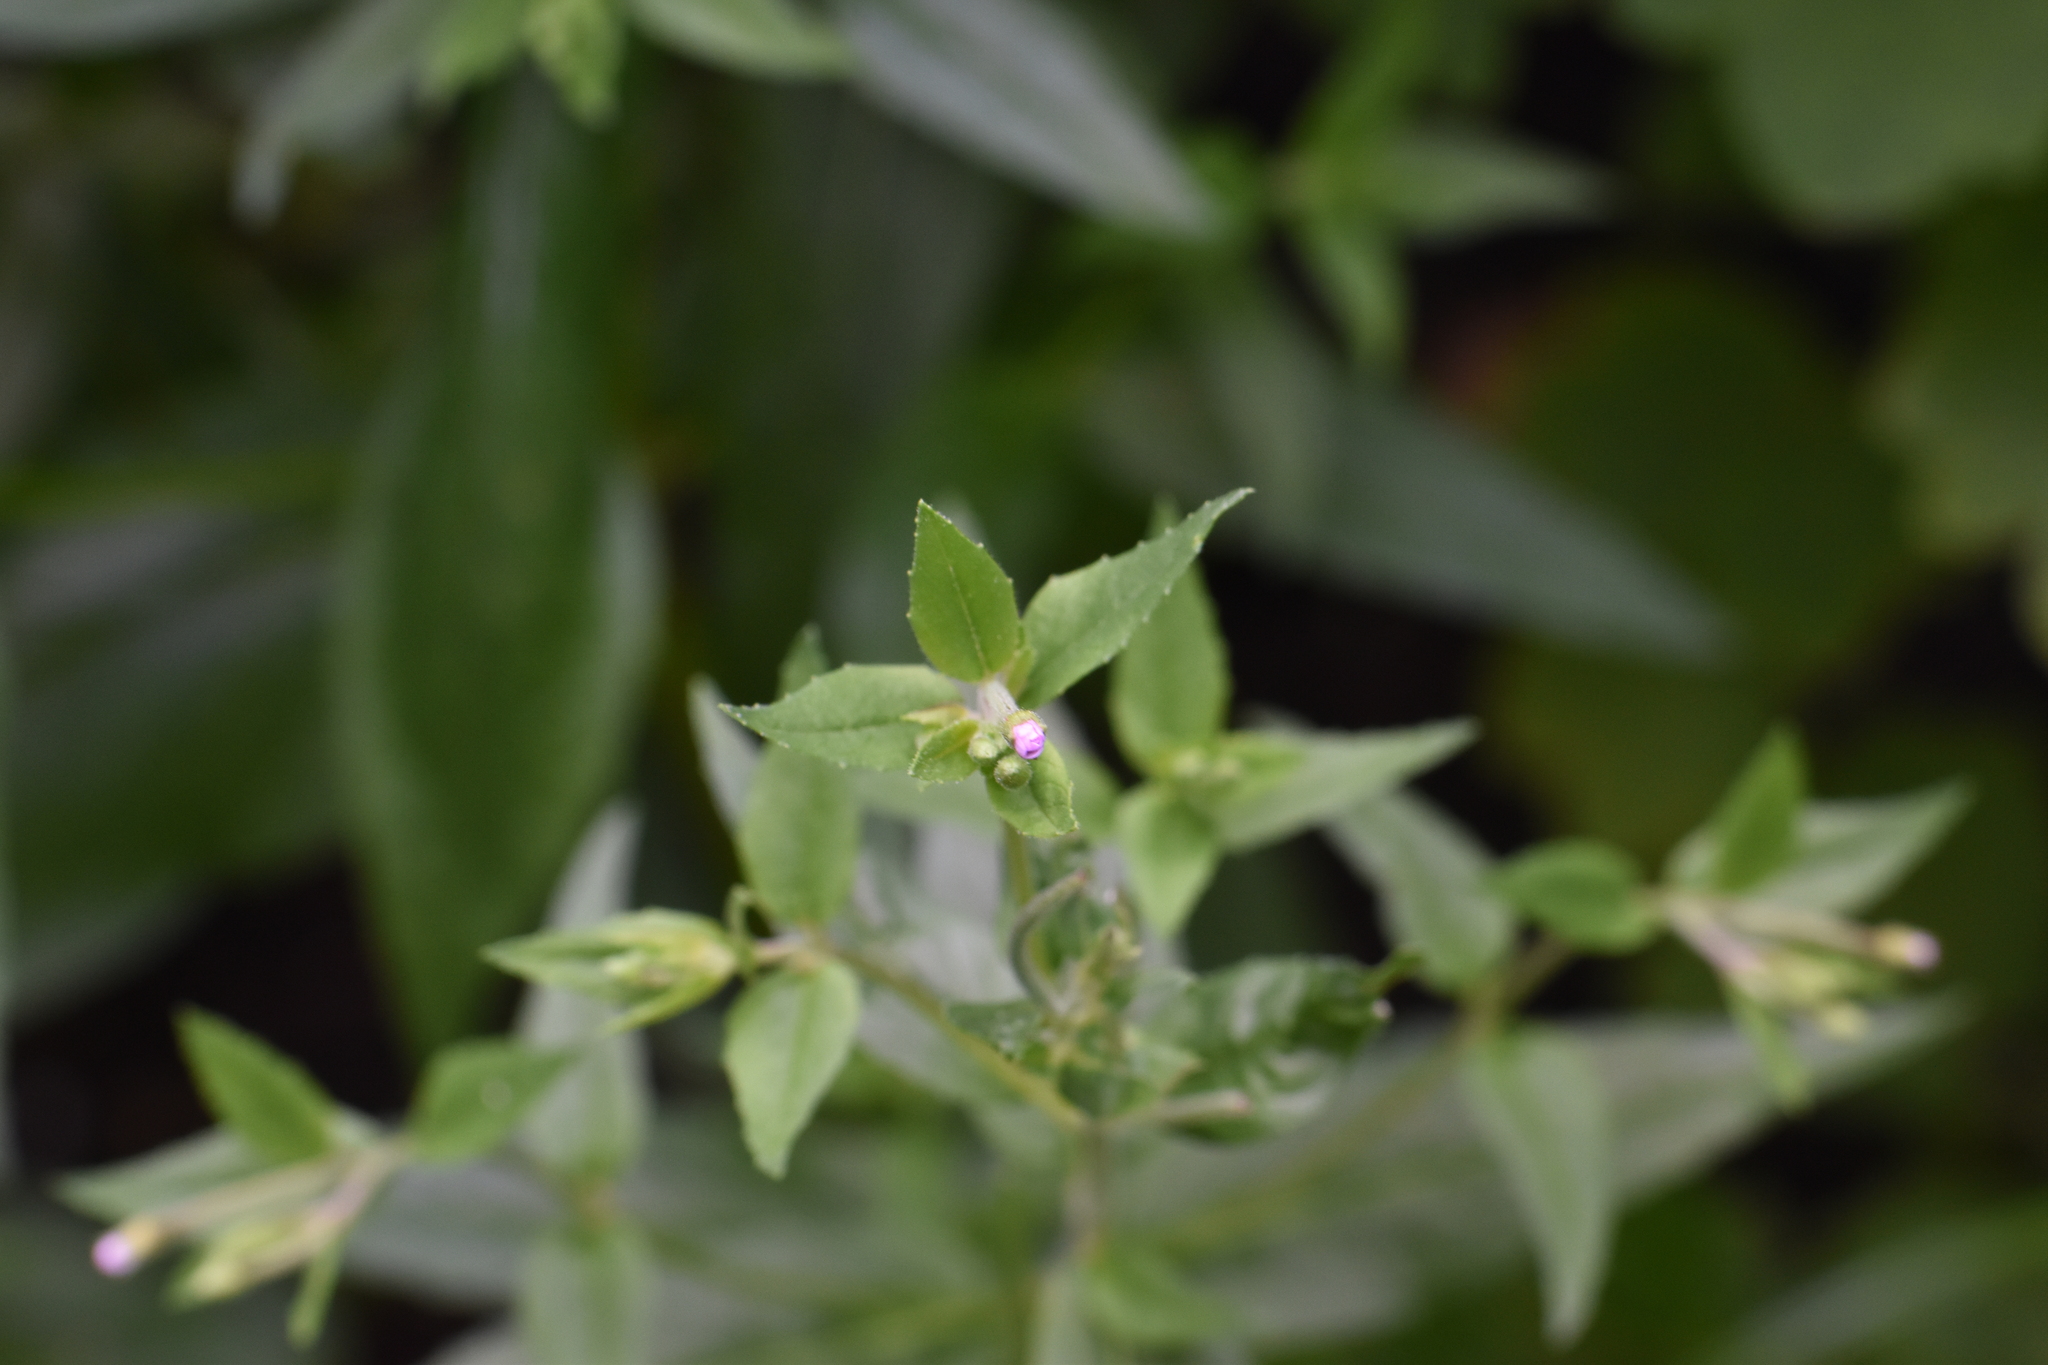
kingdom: Plantae
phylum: Tracheophyta
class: Magnoliopsida
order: Myrtales
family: Onagraceae
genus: Epilobium
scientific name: Epilobium ciliatum
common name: American willowherb
